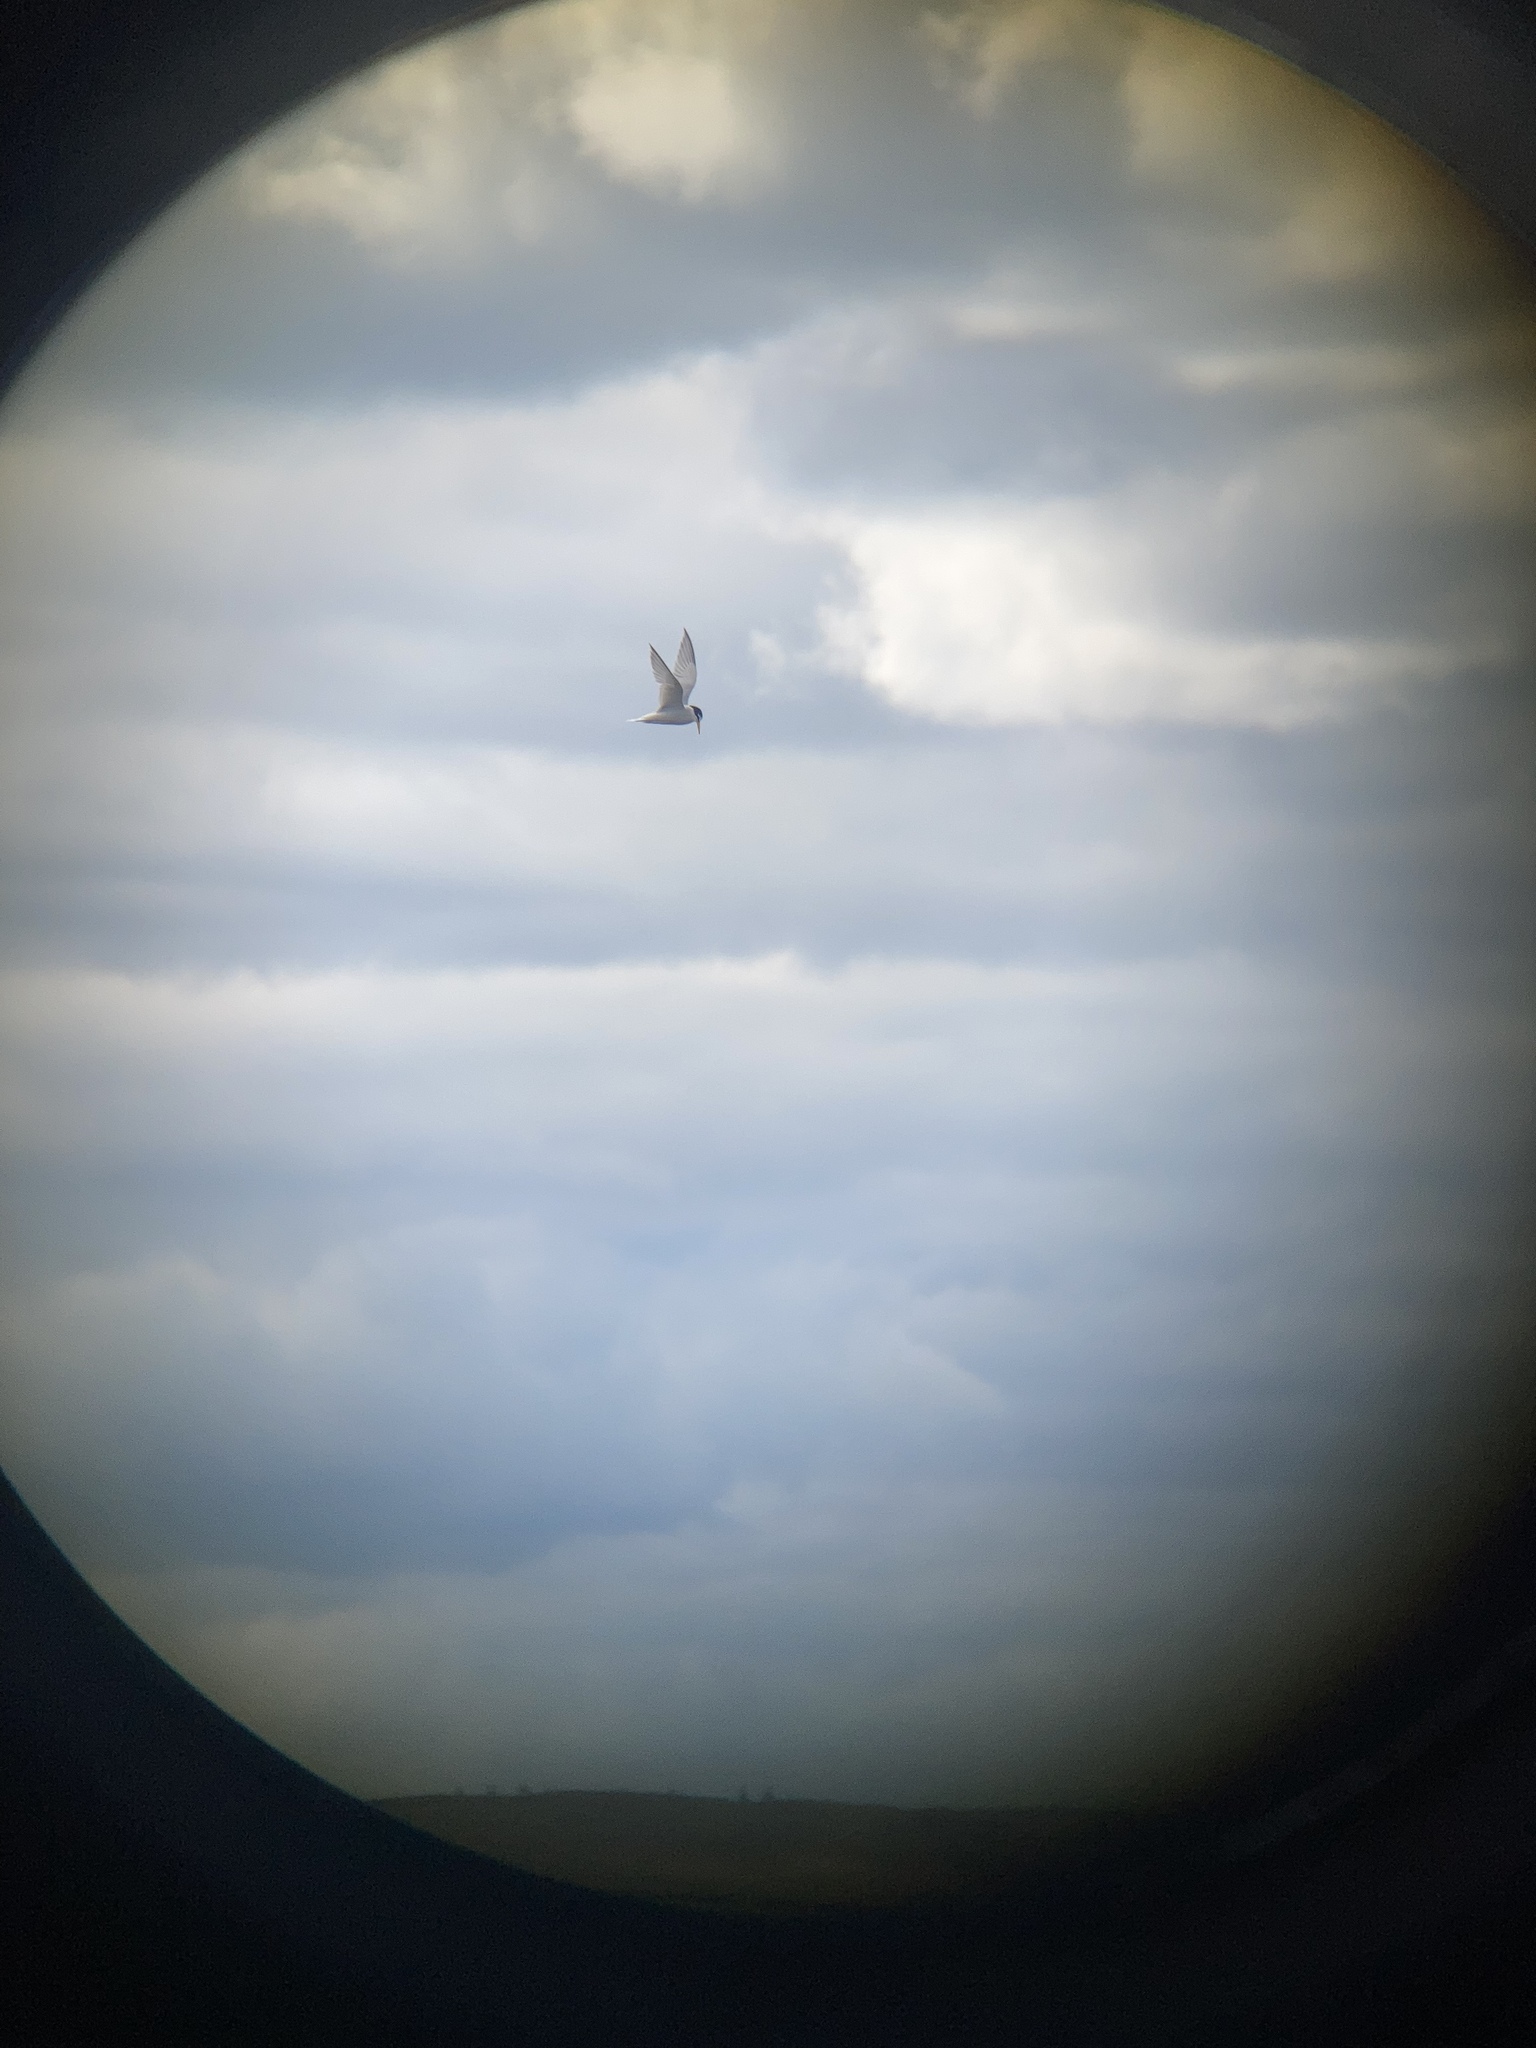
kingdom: Animalia
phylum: Chordata
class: Aves
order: Charadriiformes
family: Laridae
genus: Sternula
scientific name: Sternula albifrons
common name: Little tern
